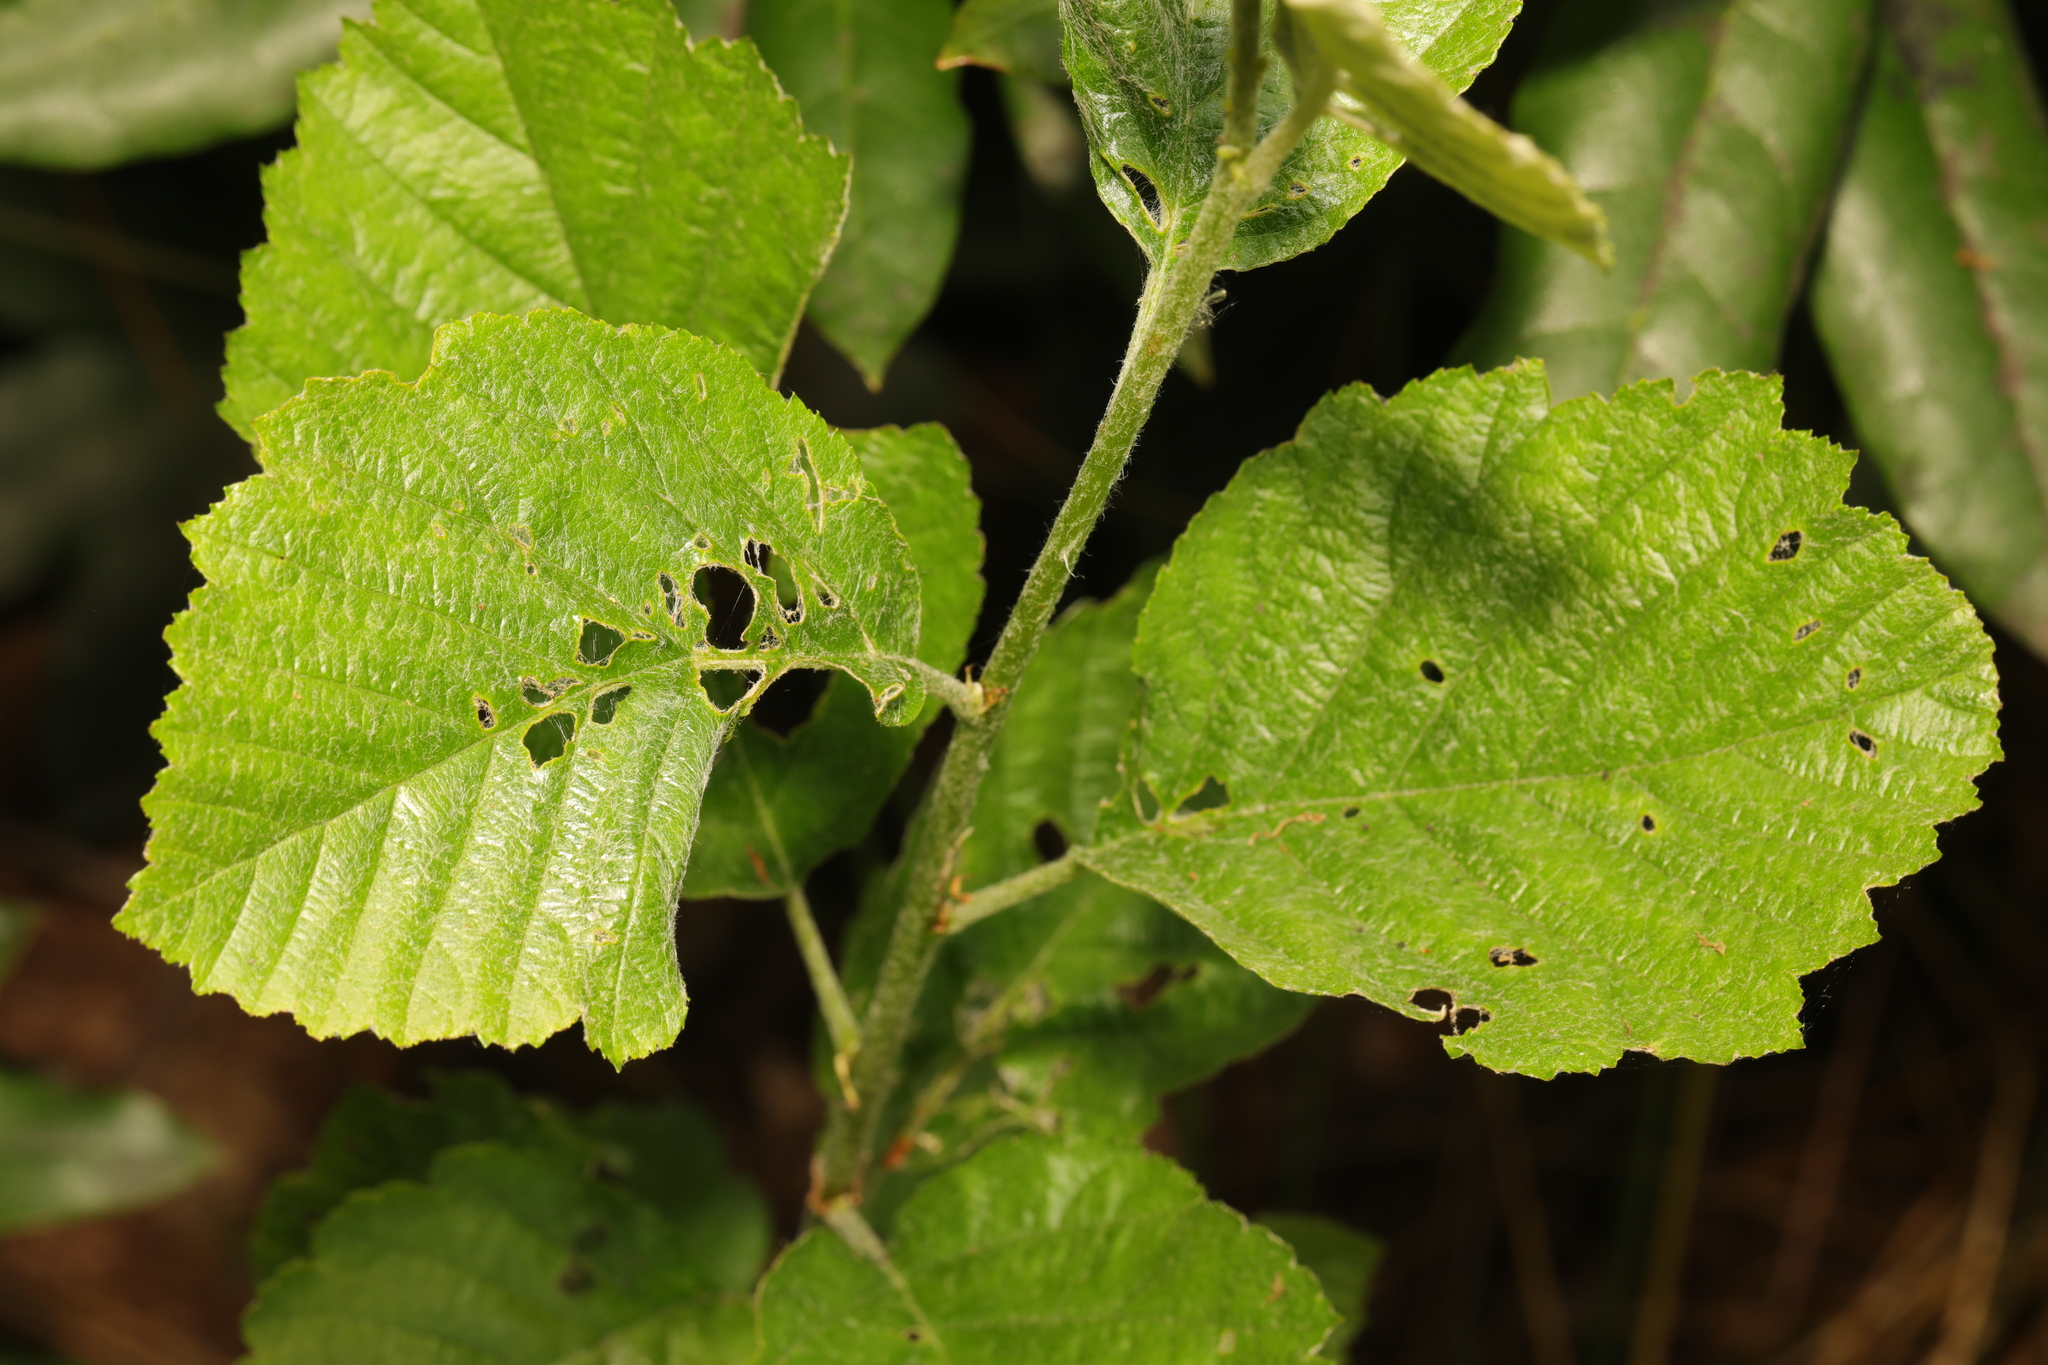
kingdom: Plantae
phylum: Tracheophyta
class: Magnoliopsida
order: Fagales
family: Betulaceae
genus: Alnus
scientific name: Alnus incana
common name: Grey alder
